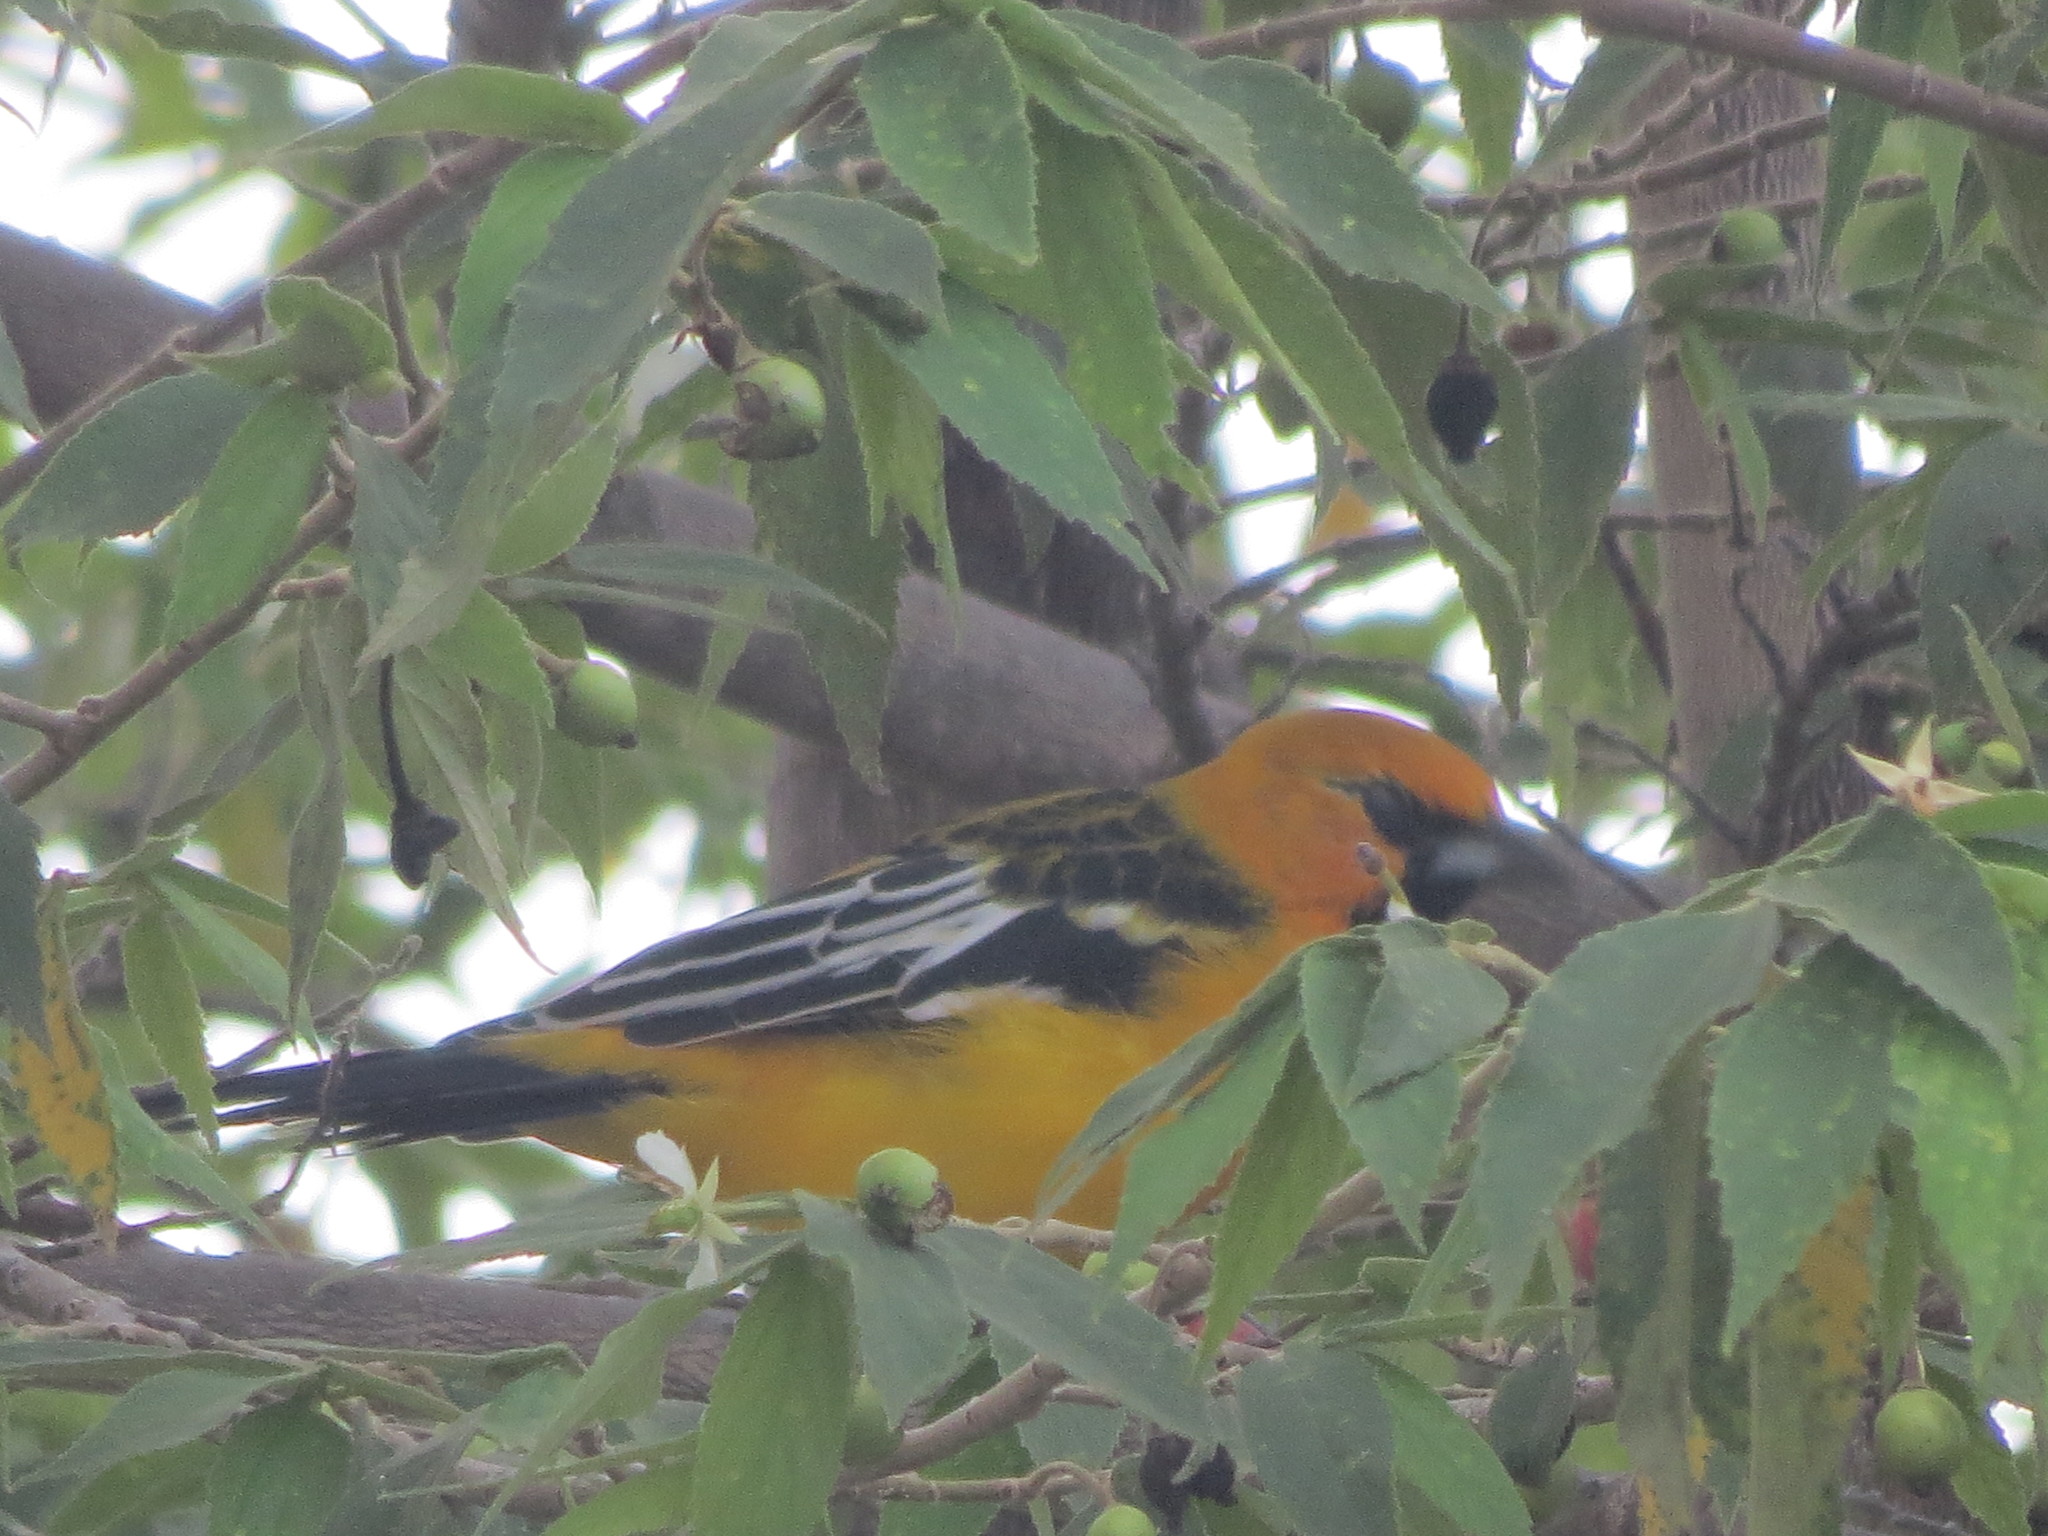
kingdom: Animalia
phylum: Chordata
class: Aves
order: Passeriformes
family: Icteridae
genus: Icterus
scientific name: Icterus pustulatus
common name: Streak-backed oriole
